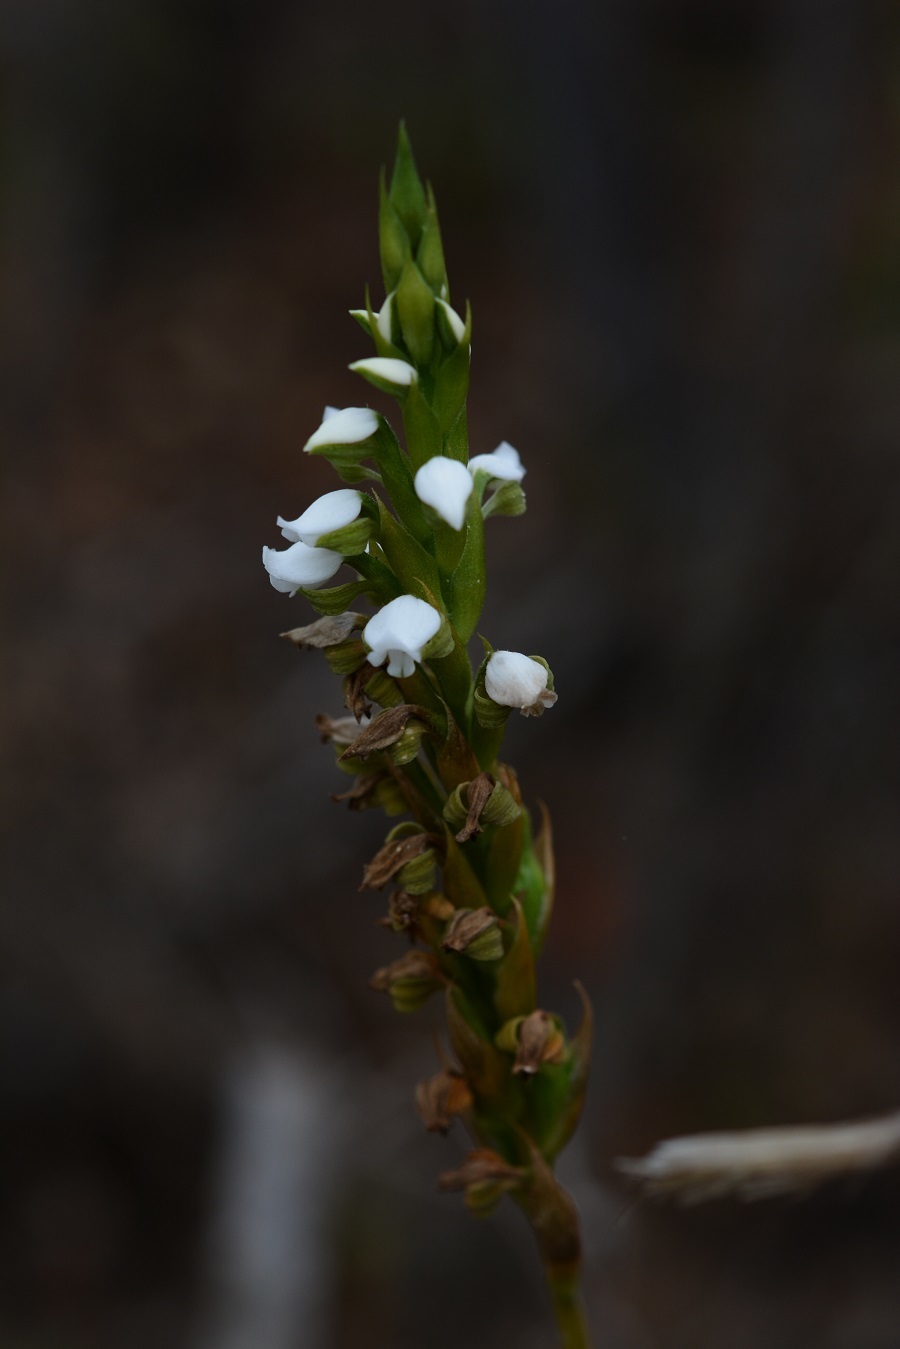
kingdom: Plantae
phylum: Tracheophyta
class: Liliopsida
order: Asparagales
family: Orchidaceae
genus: Aulosepalum
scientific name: Aulosepalum hemichrea
